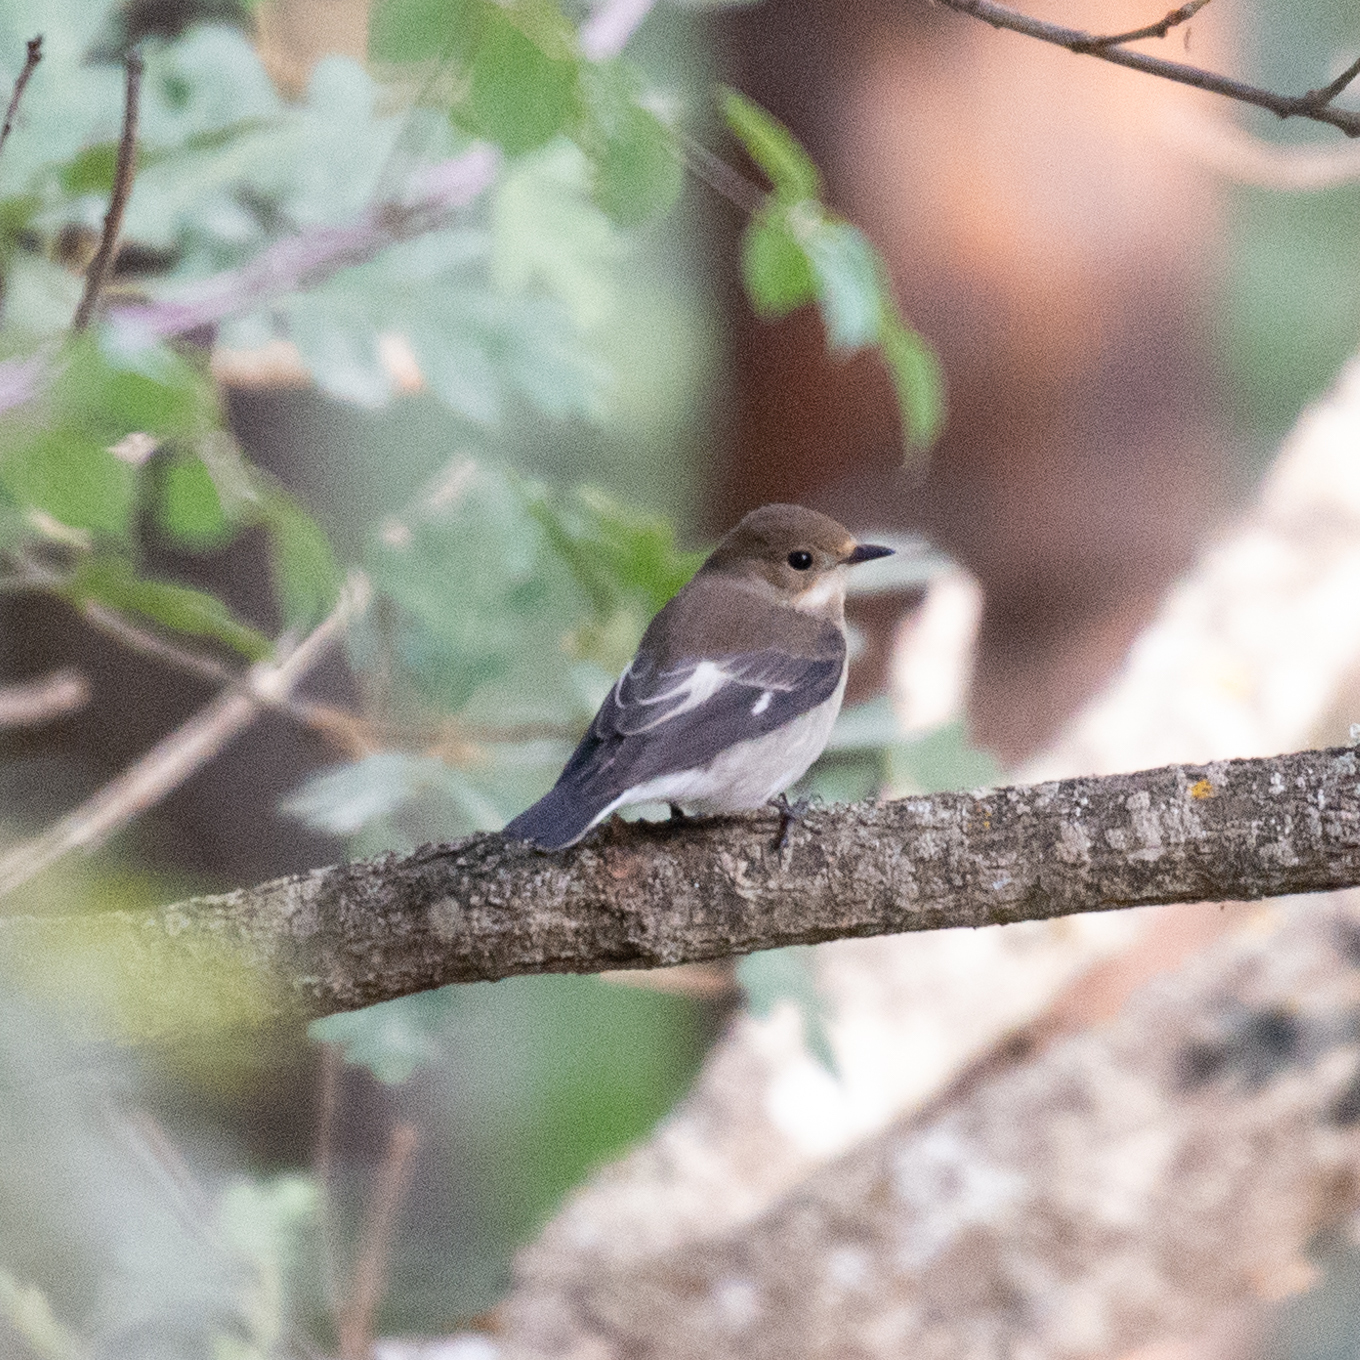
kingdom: Animalia
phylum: Chordata
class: Aves
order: Passeriformes
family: Muscicapidae
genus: Ficedula
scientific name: Ficedula hypoleuca
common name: European pied flycatcher
